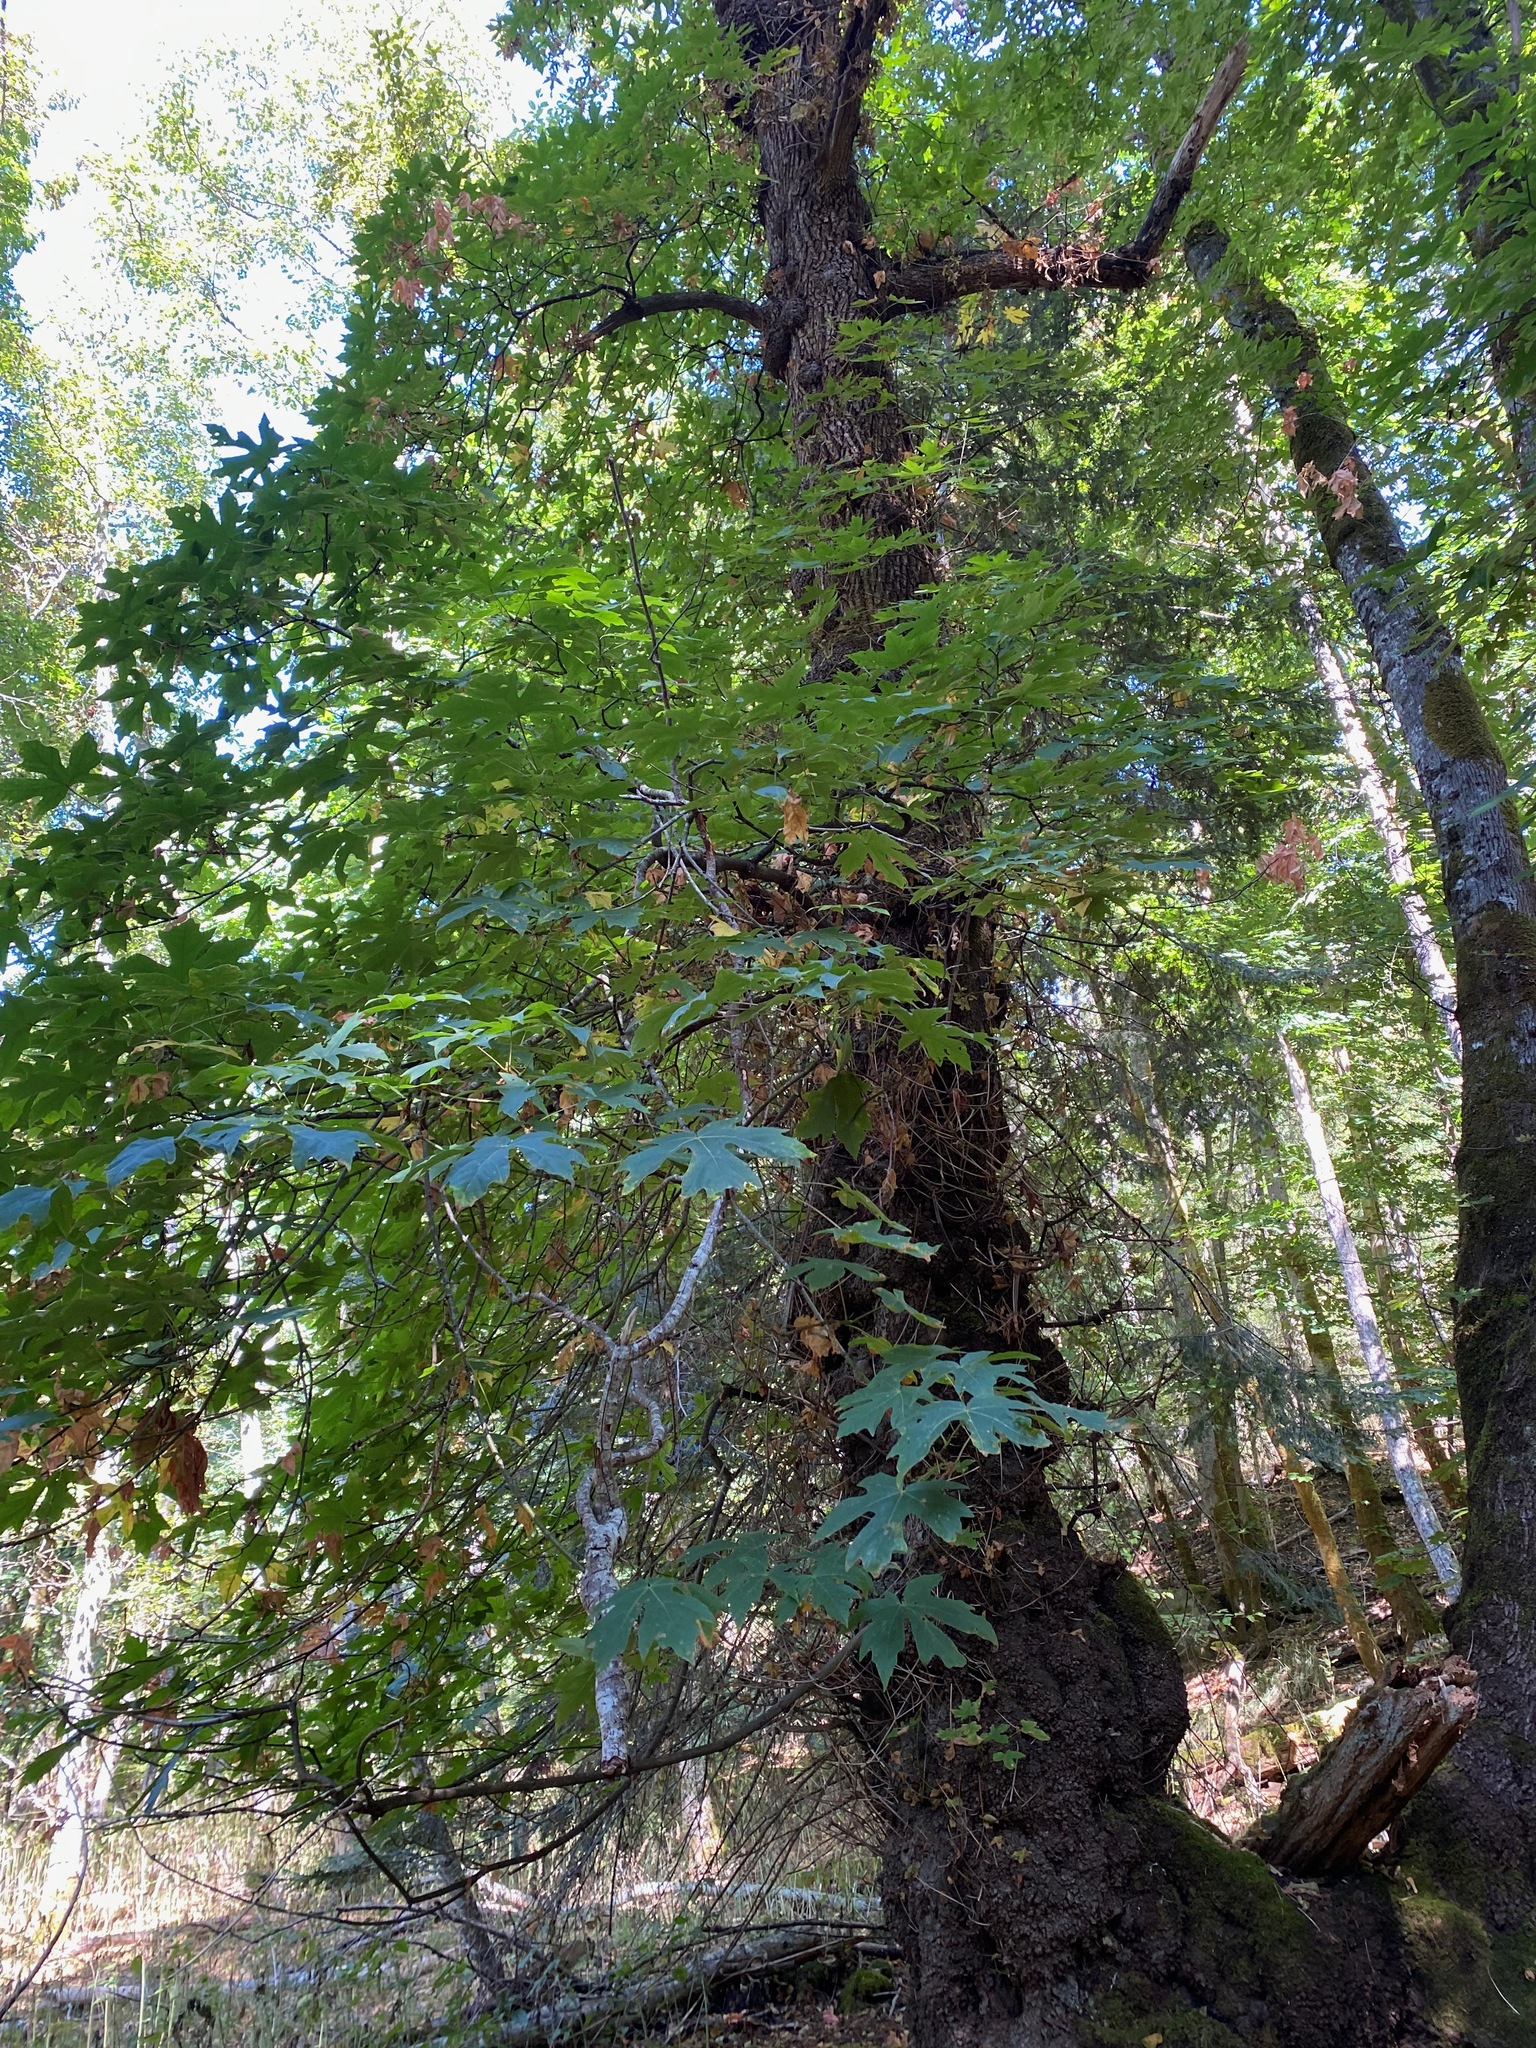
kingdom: Plantae
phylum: Tracheophyta
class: Magnoliopsida
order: Sapindales
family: Sapindaceae
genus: Acer
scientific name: Acer macrophyllum
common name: Oregon maple
